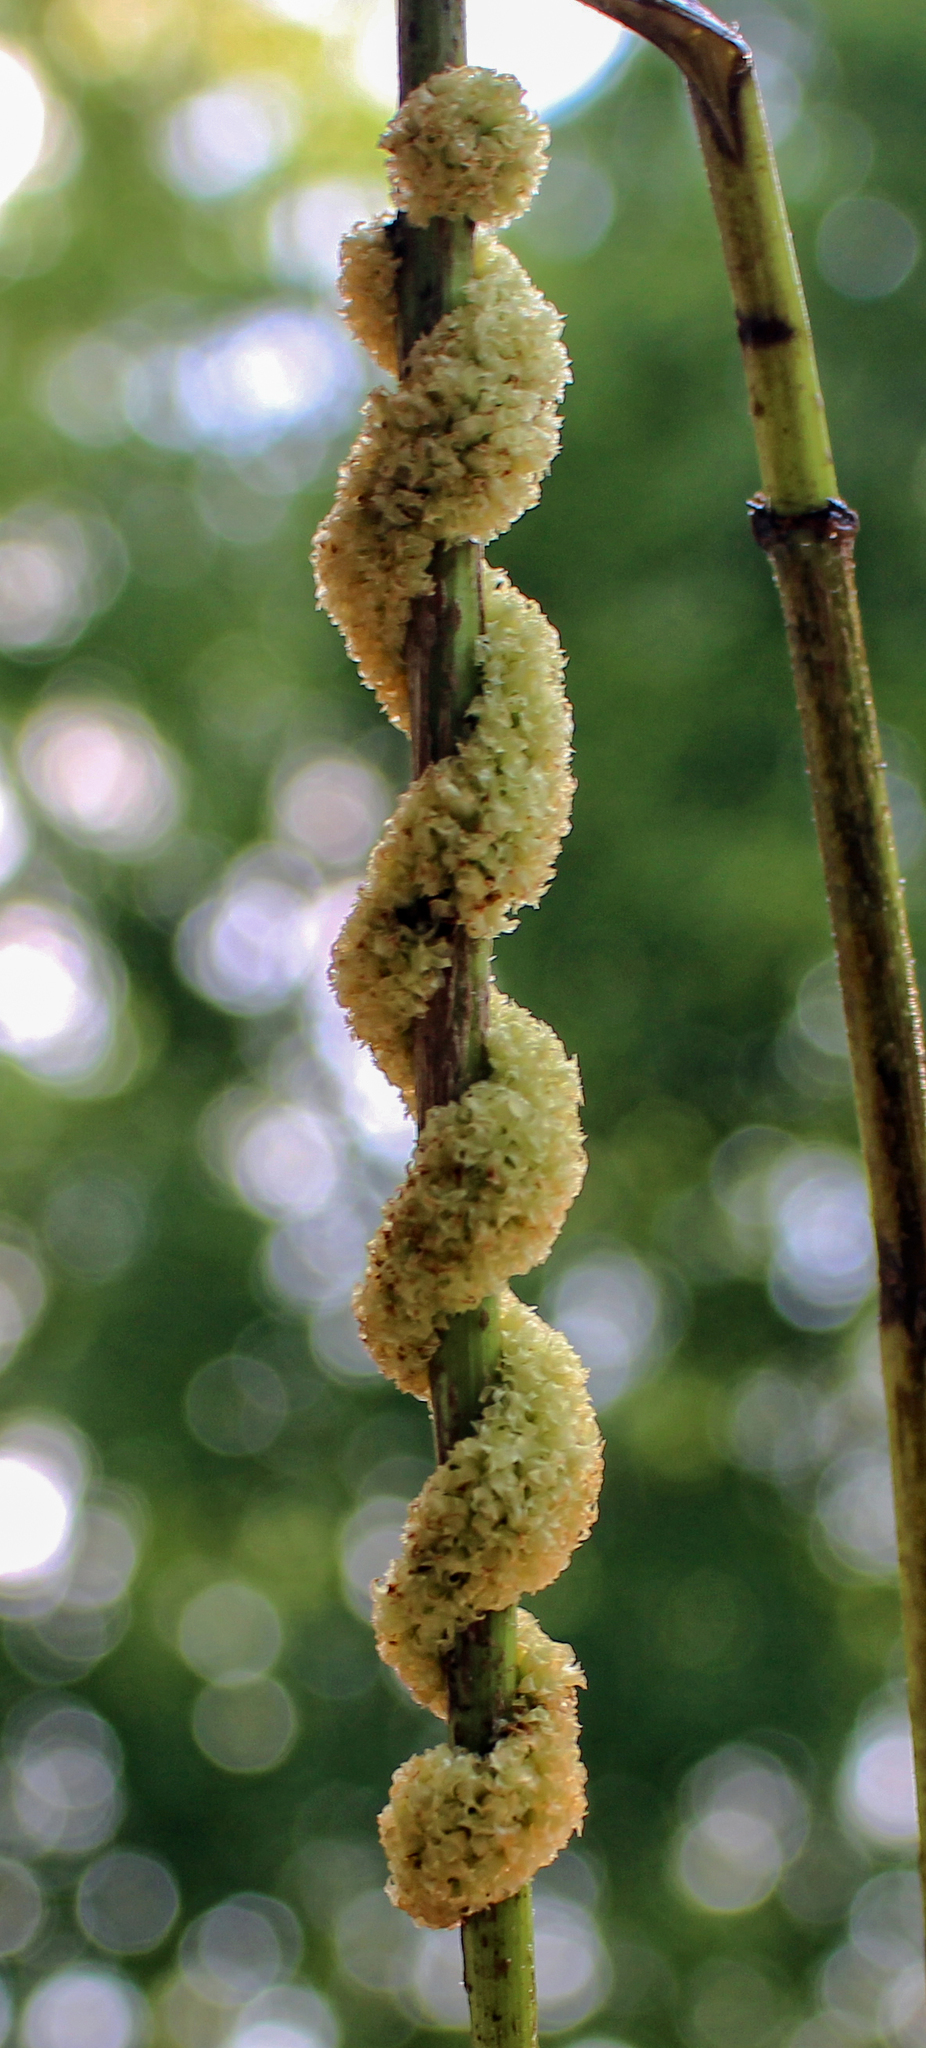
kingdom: Plantae
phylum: Tracheophyta
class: Magnoliopsida
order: Solanales
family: Convolvulaceae
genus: Cuscuta
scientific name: Cuscuta glomerata
